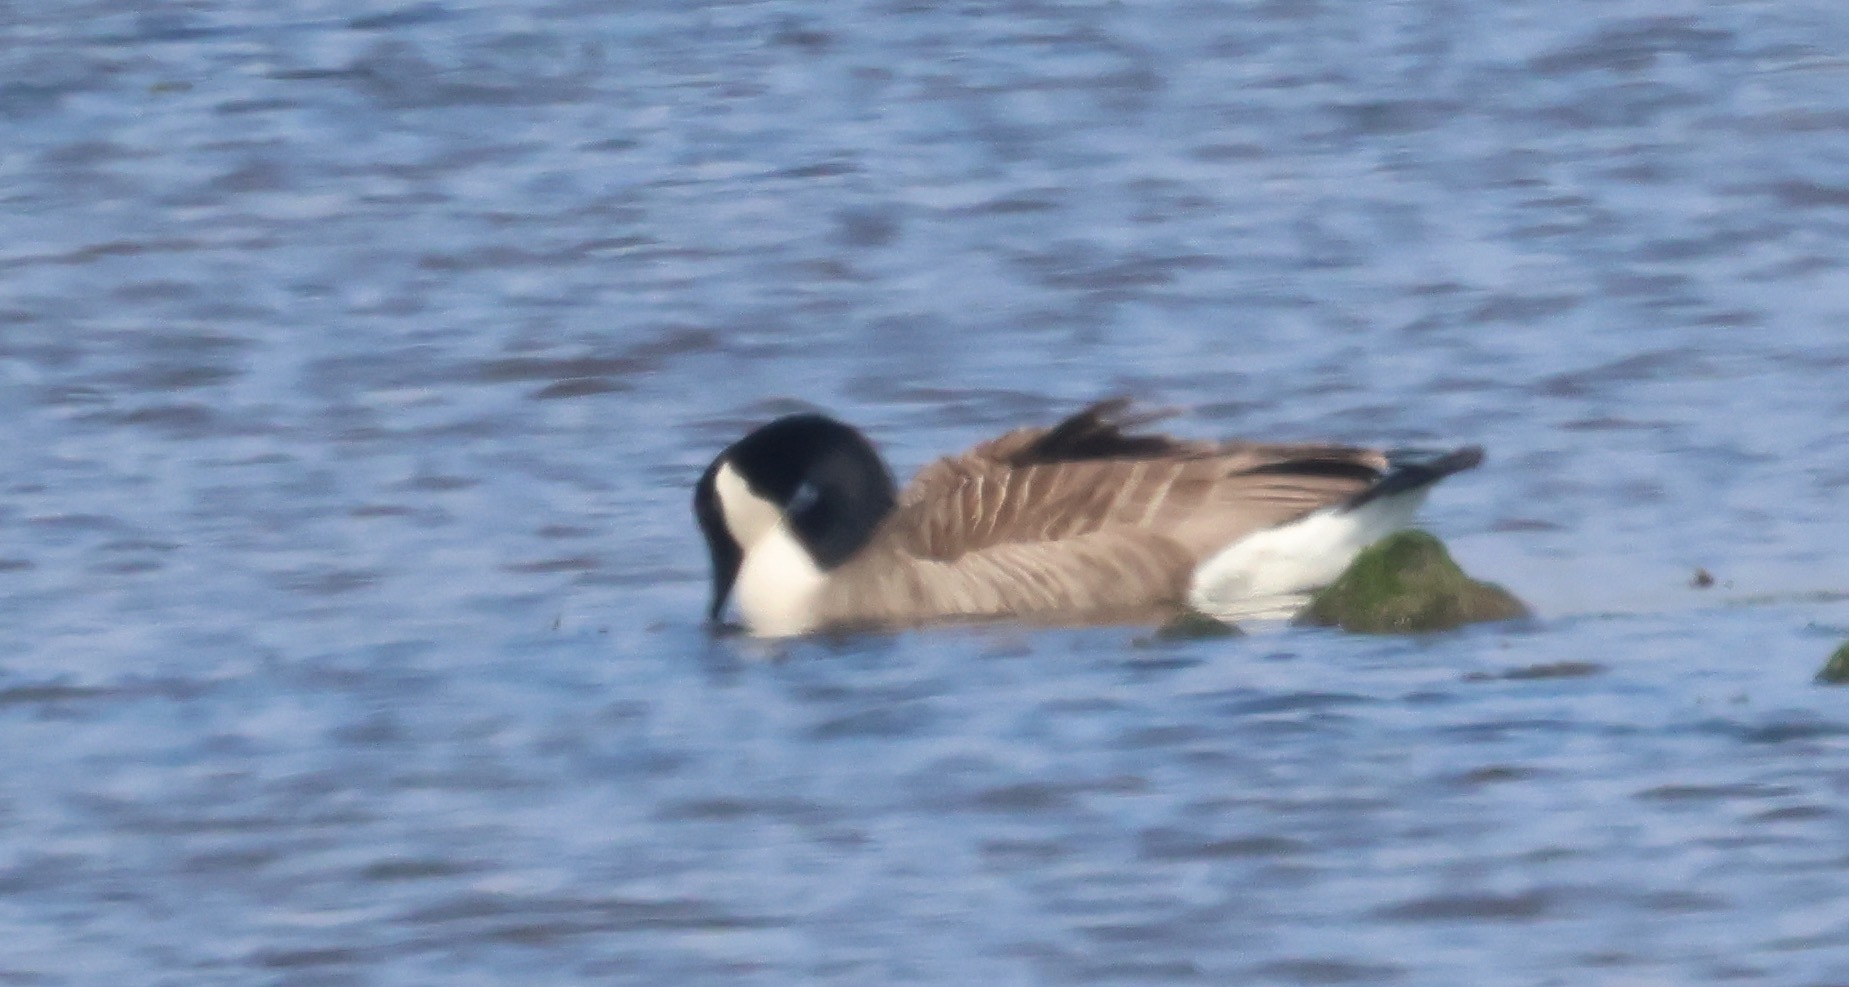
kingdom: Animalia
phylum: Chordata
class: Aves
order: Anseriformes
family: Anatidae
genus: Branta
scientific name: Branta canadensis
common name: Canada goose
